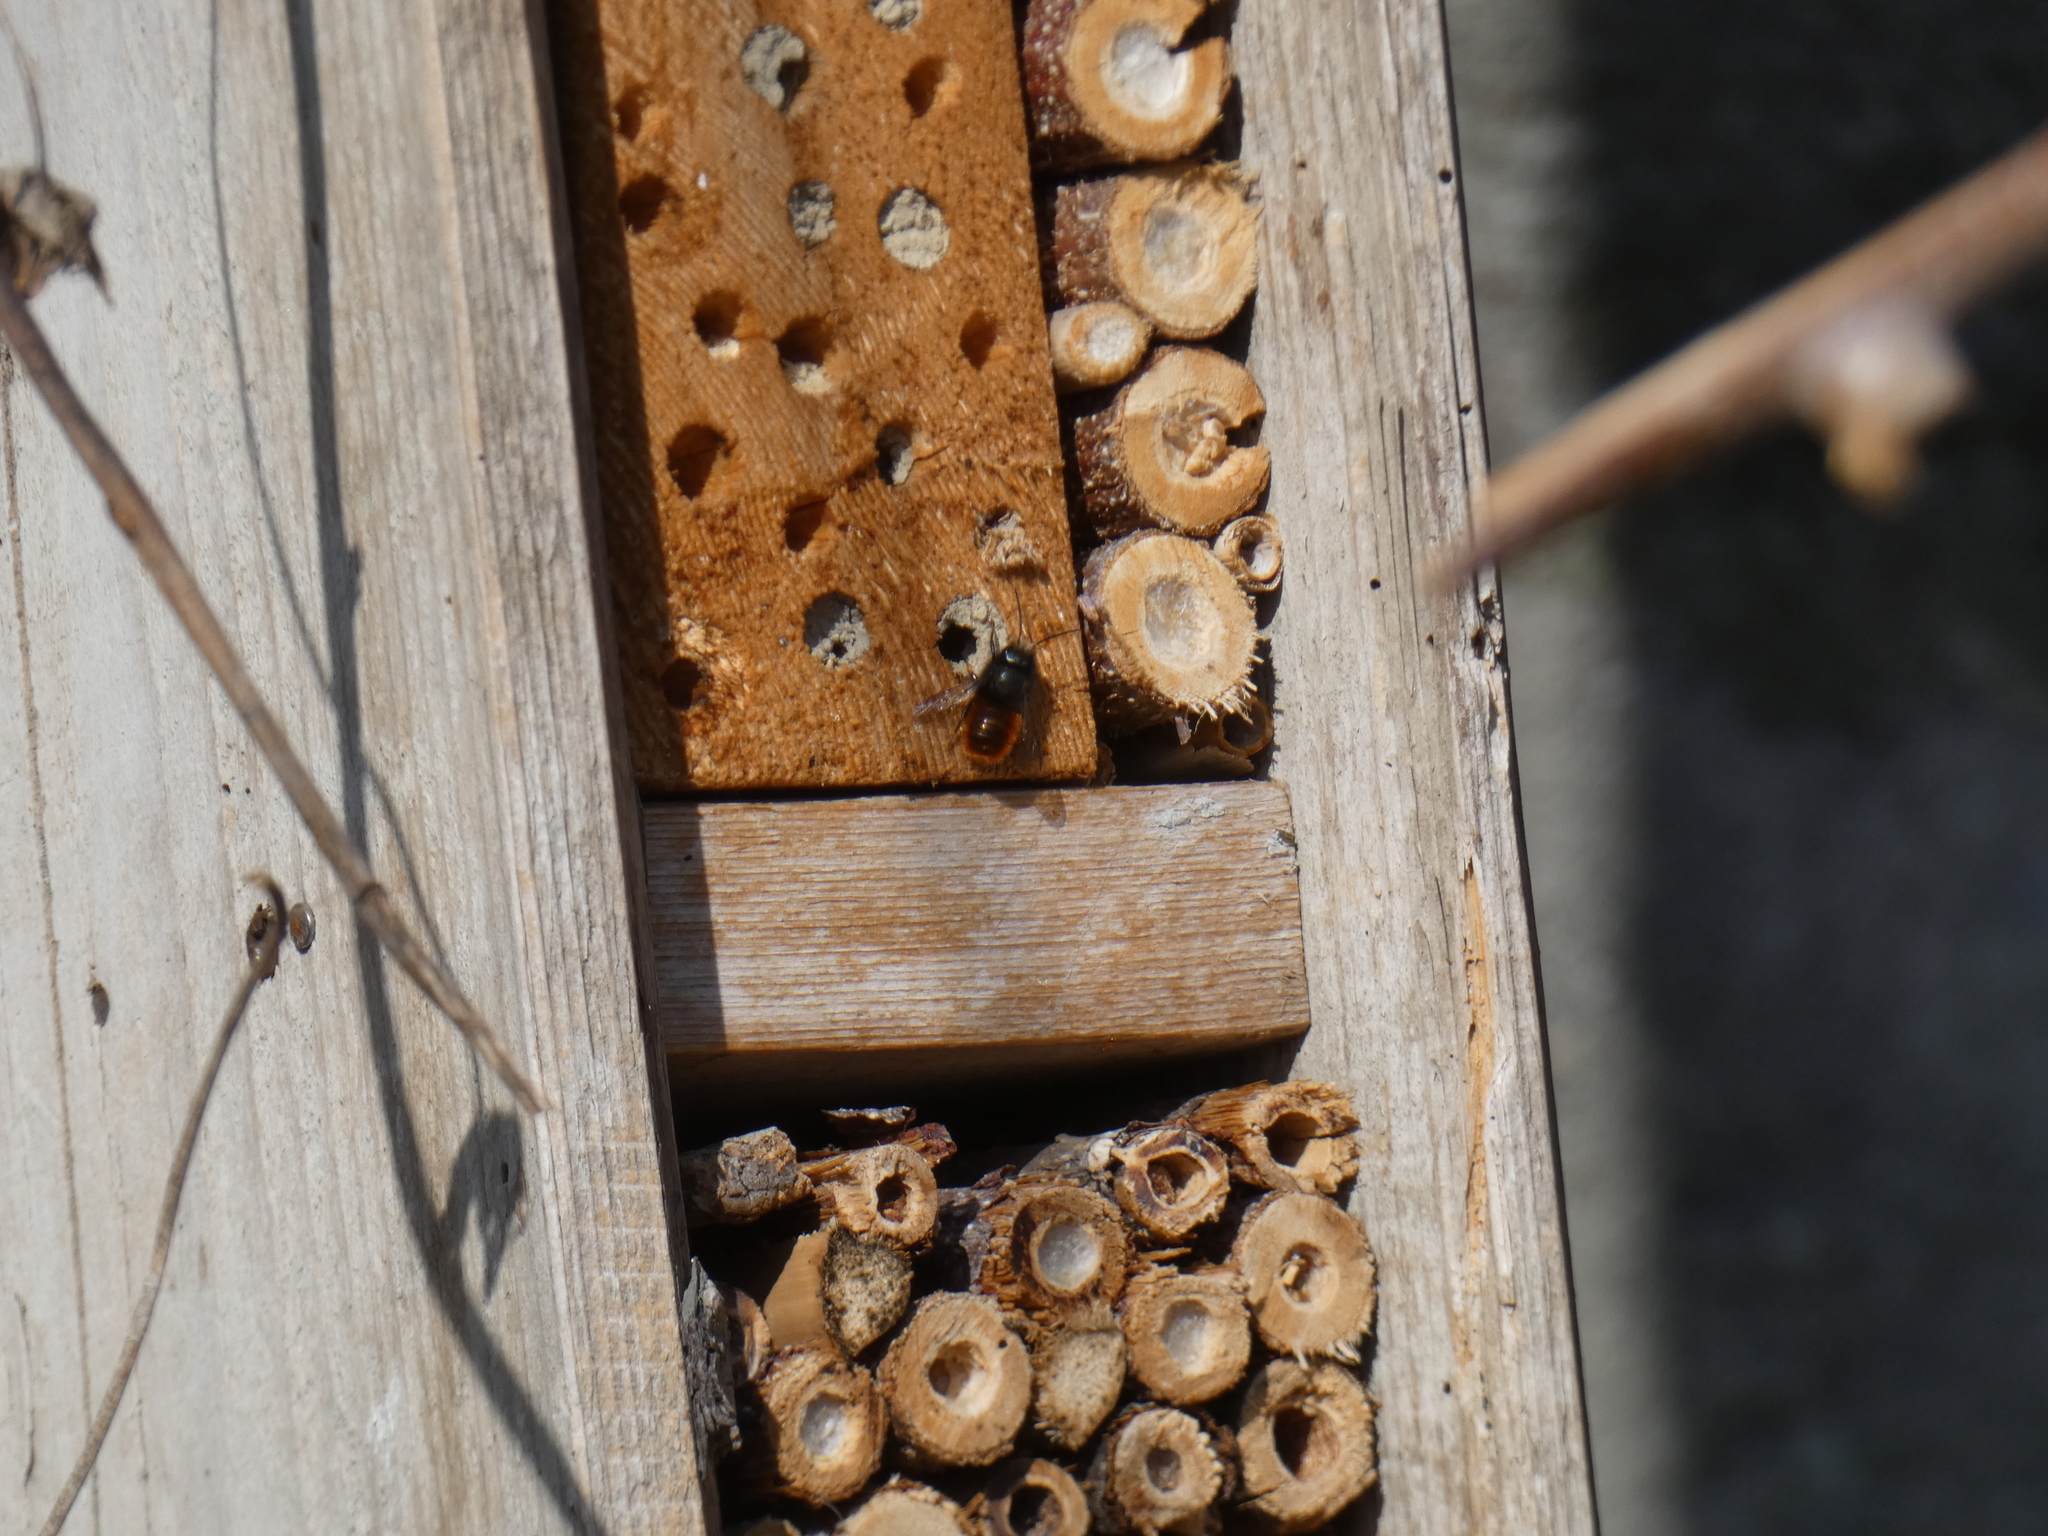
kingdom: Animalia
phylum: Arthropoda
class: Insecta
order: Hymenoptera
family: Megachilidae
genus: Osmia
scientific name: Osmia cornuta
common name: Mason bee
